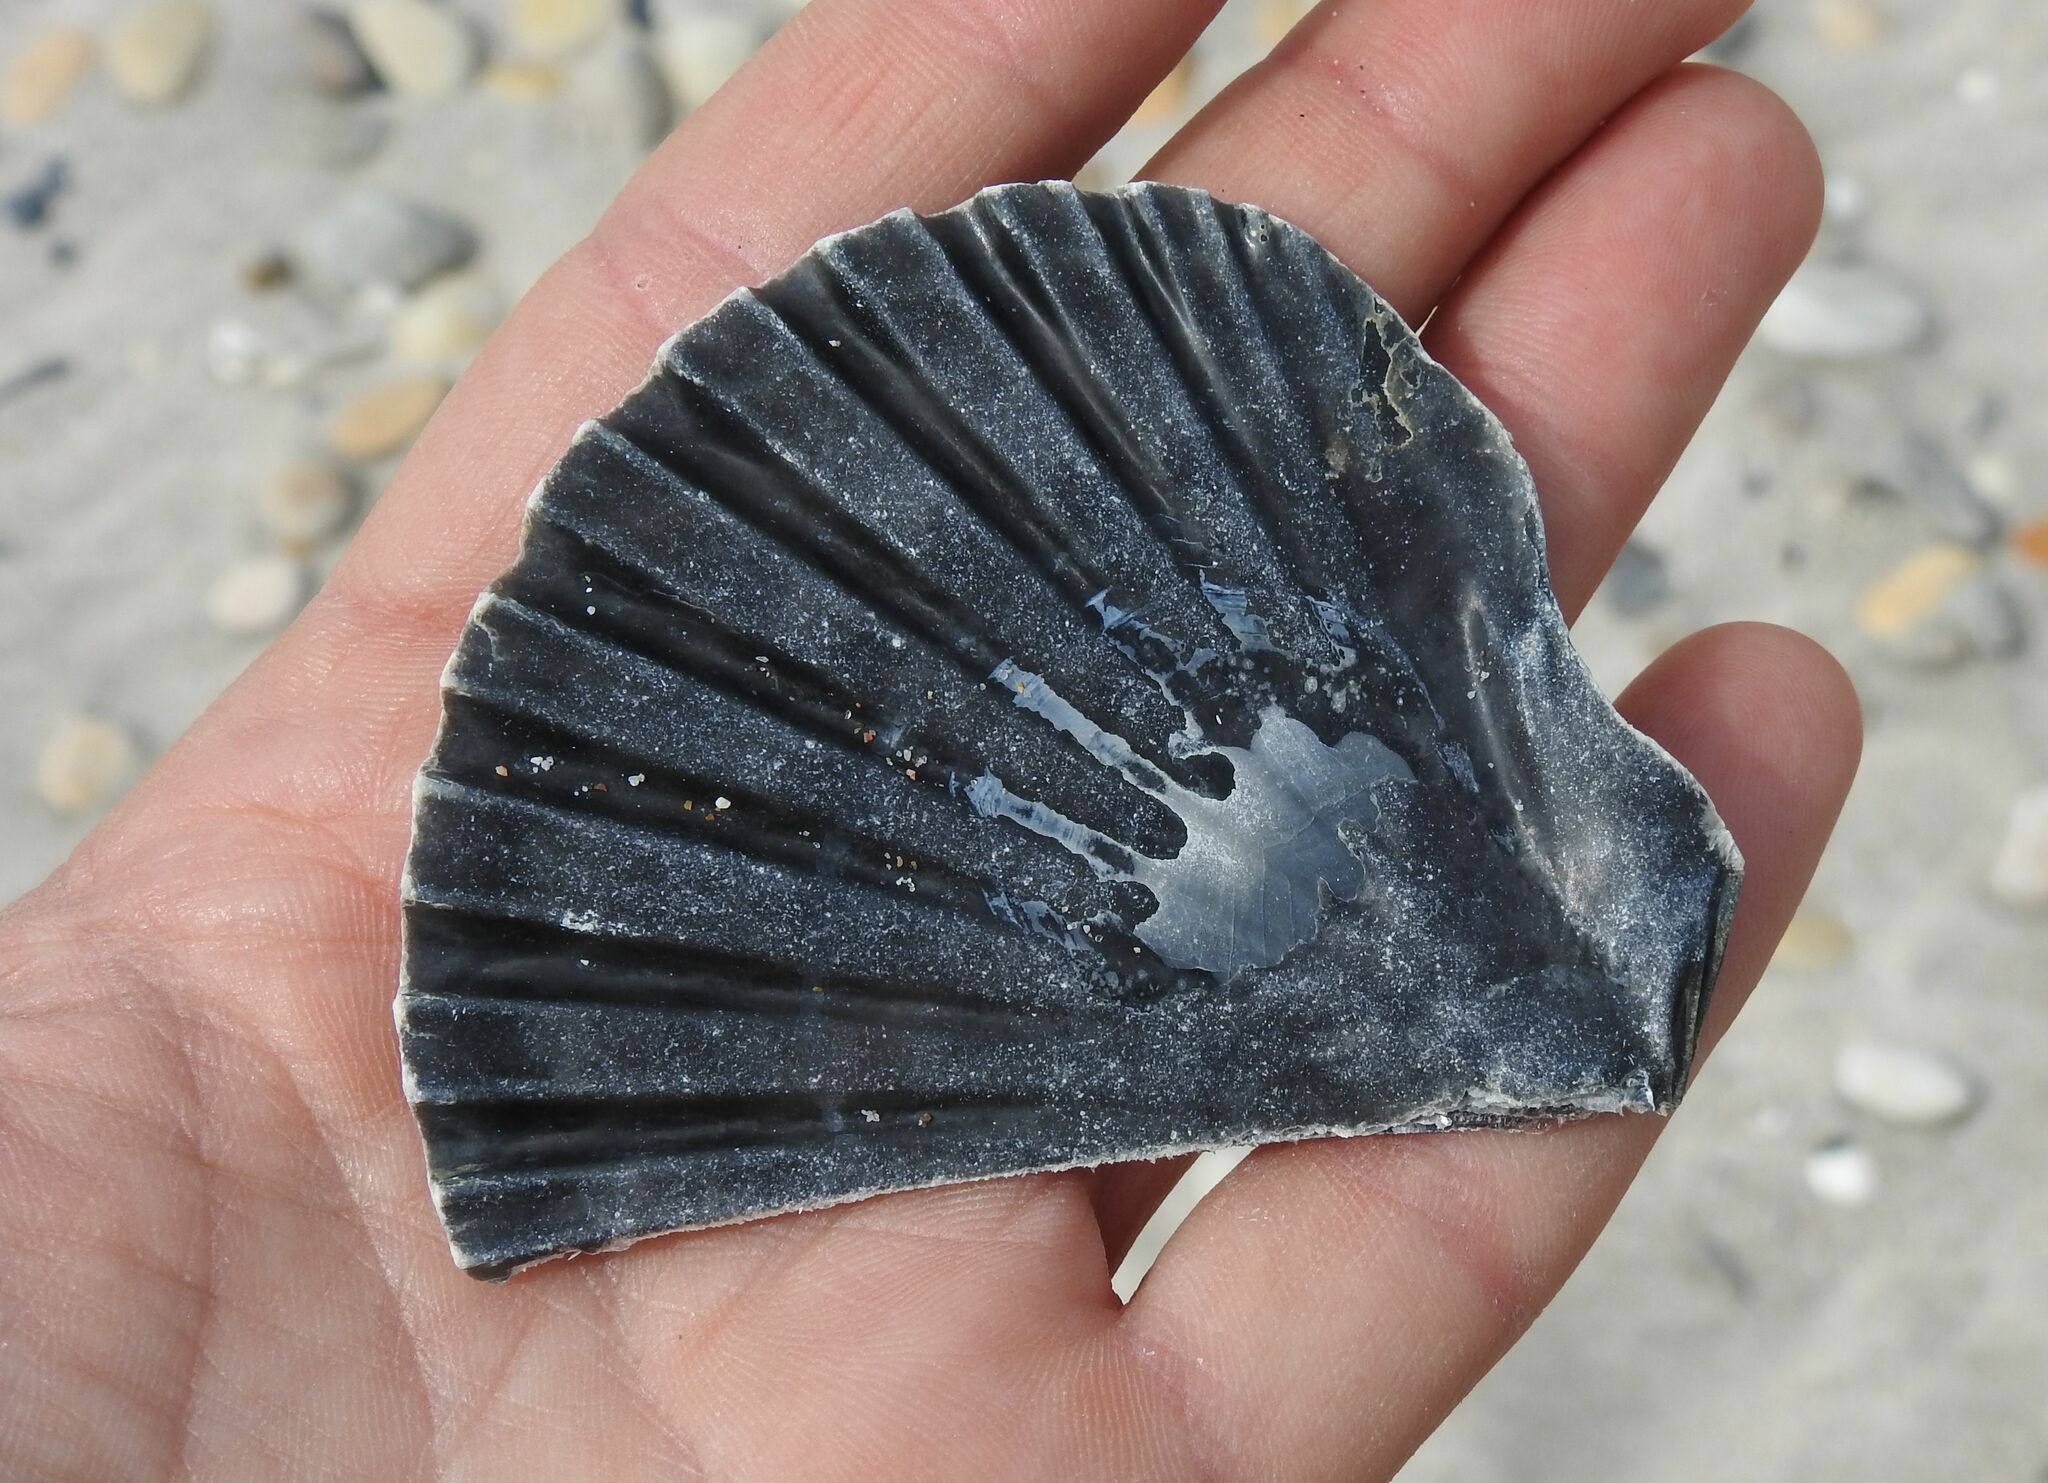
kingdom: Animalia
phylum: Mollusca
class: Bivalvia
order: Pectinida
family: Pectinidae
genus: Pecten
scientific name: Pecten jacobaeus
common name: St.james's scallop
